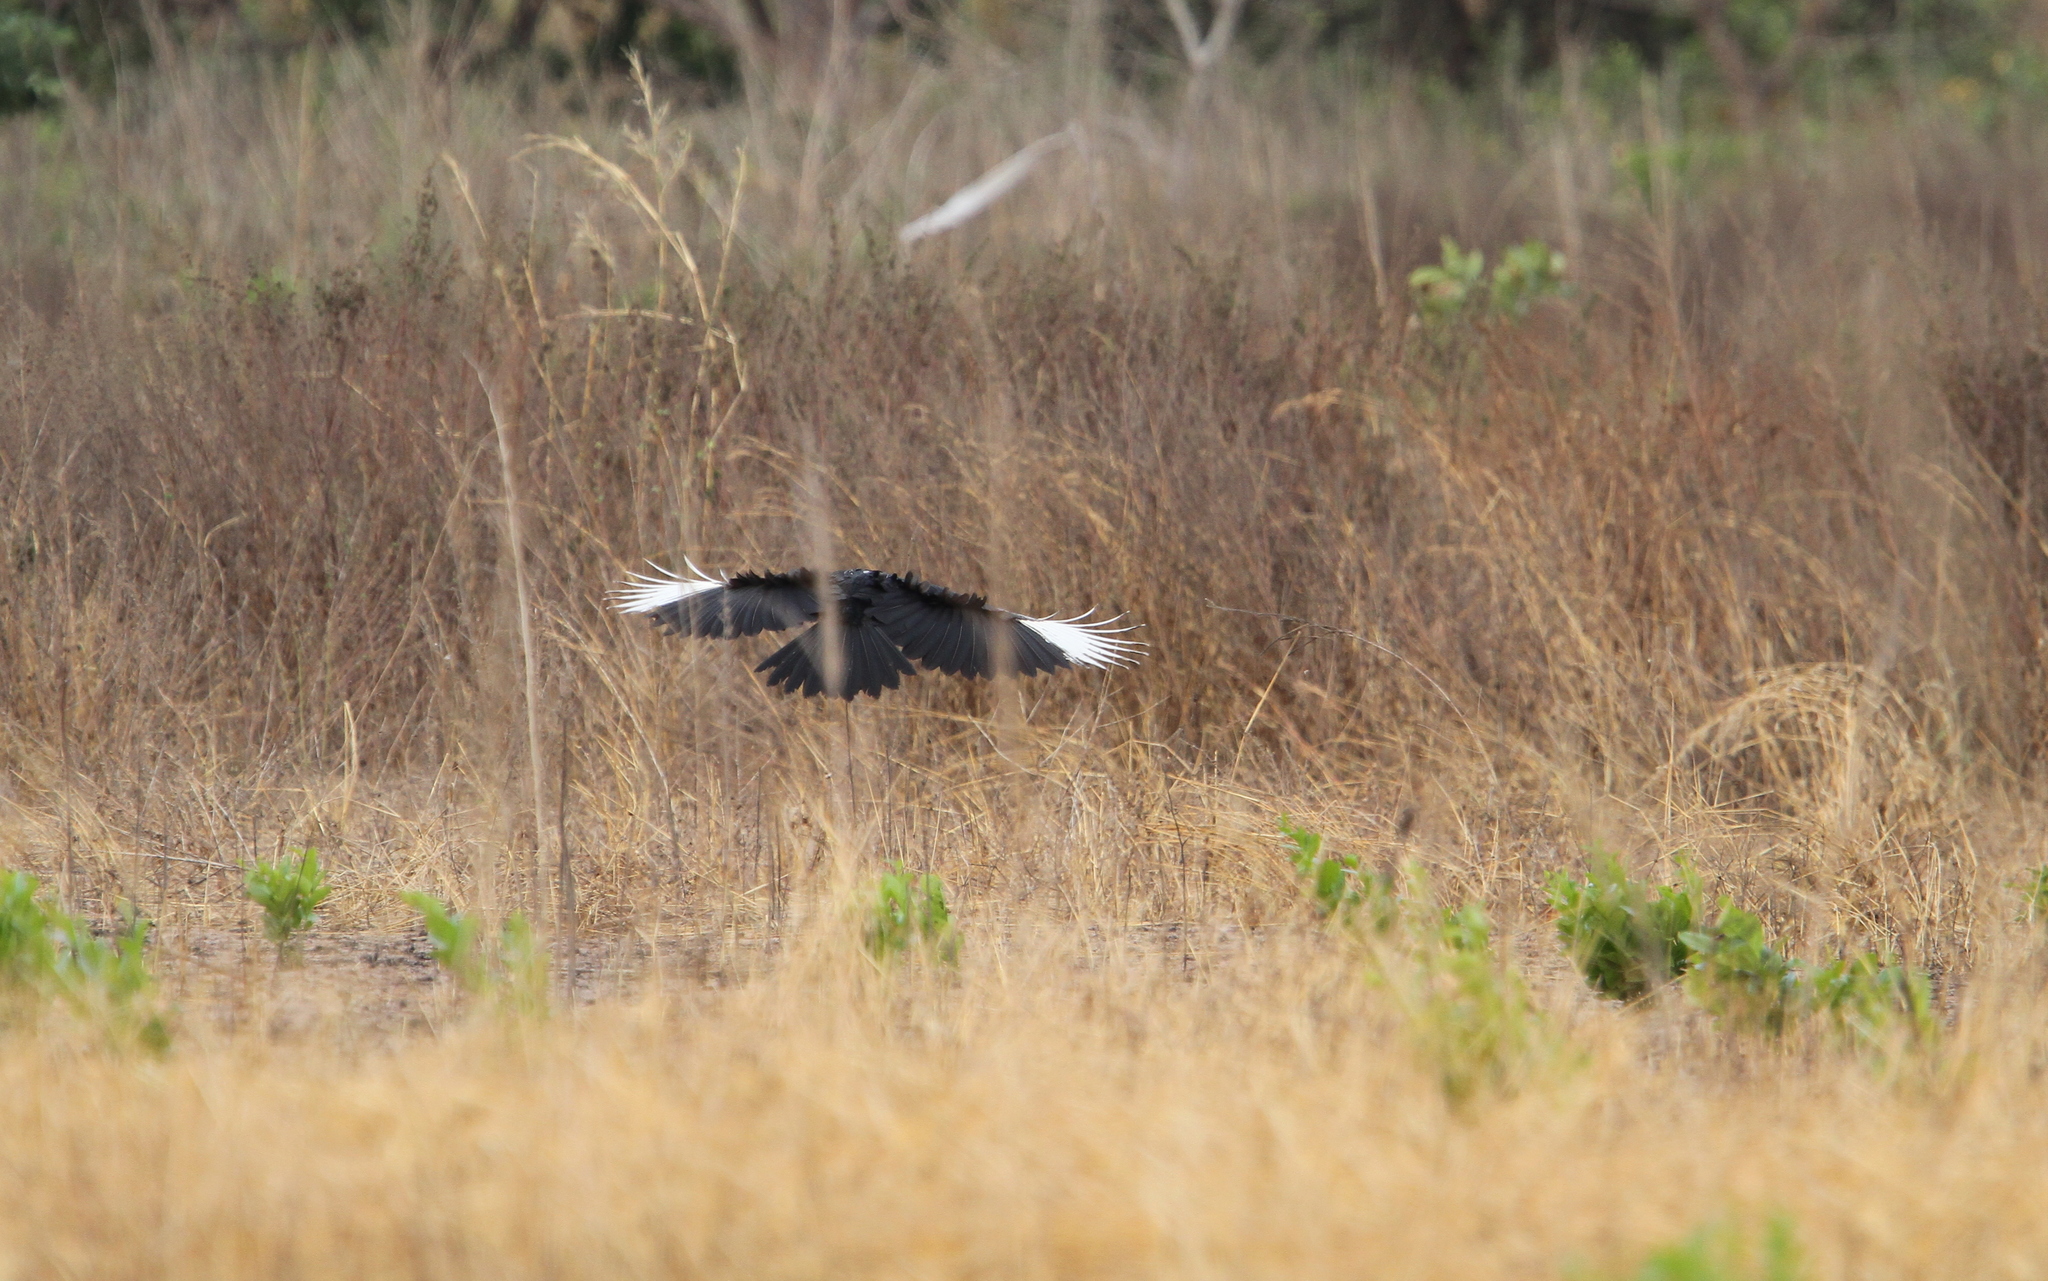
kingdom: Animalia
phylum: Chordata
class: Aves
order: Bucerotiformes
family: Bucorvidae
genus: Bucorvus
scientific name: Bucorvus abyssinicus
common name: Abyssinian ground hornbill
